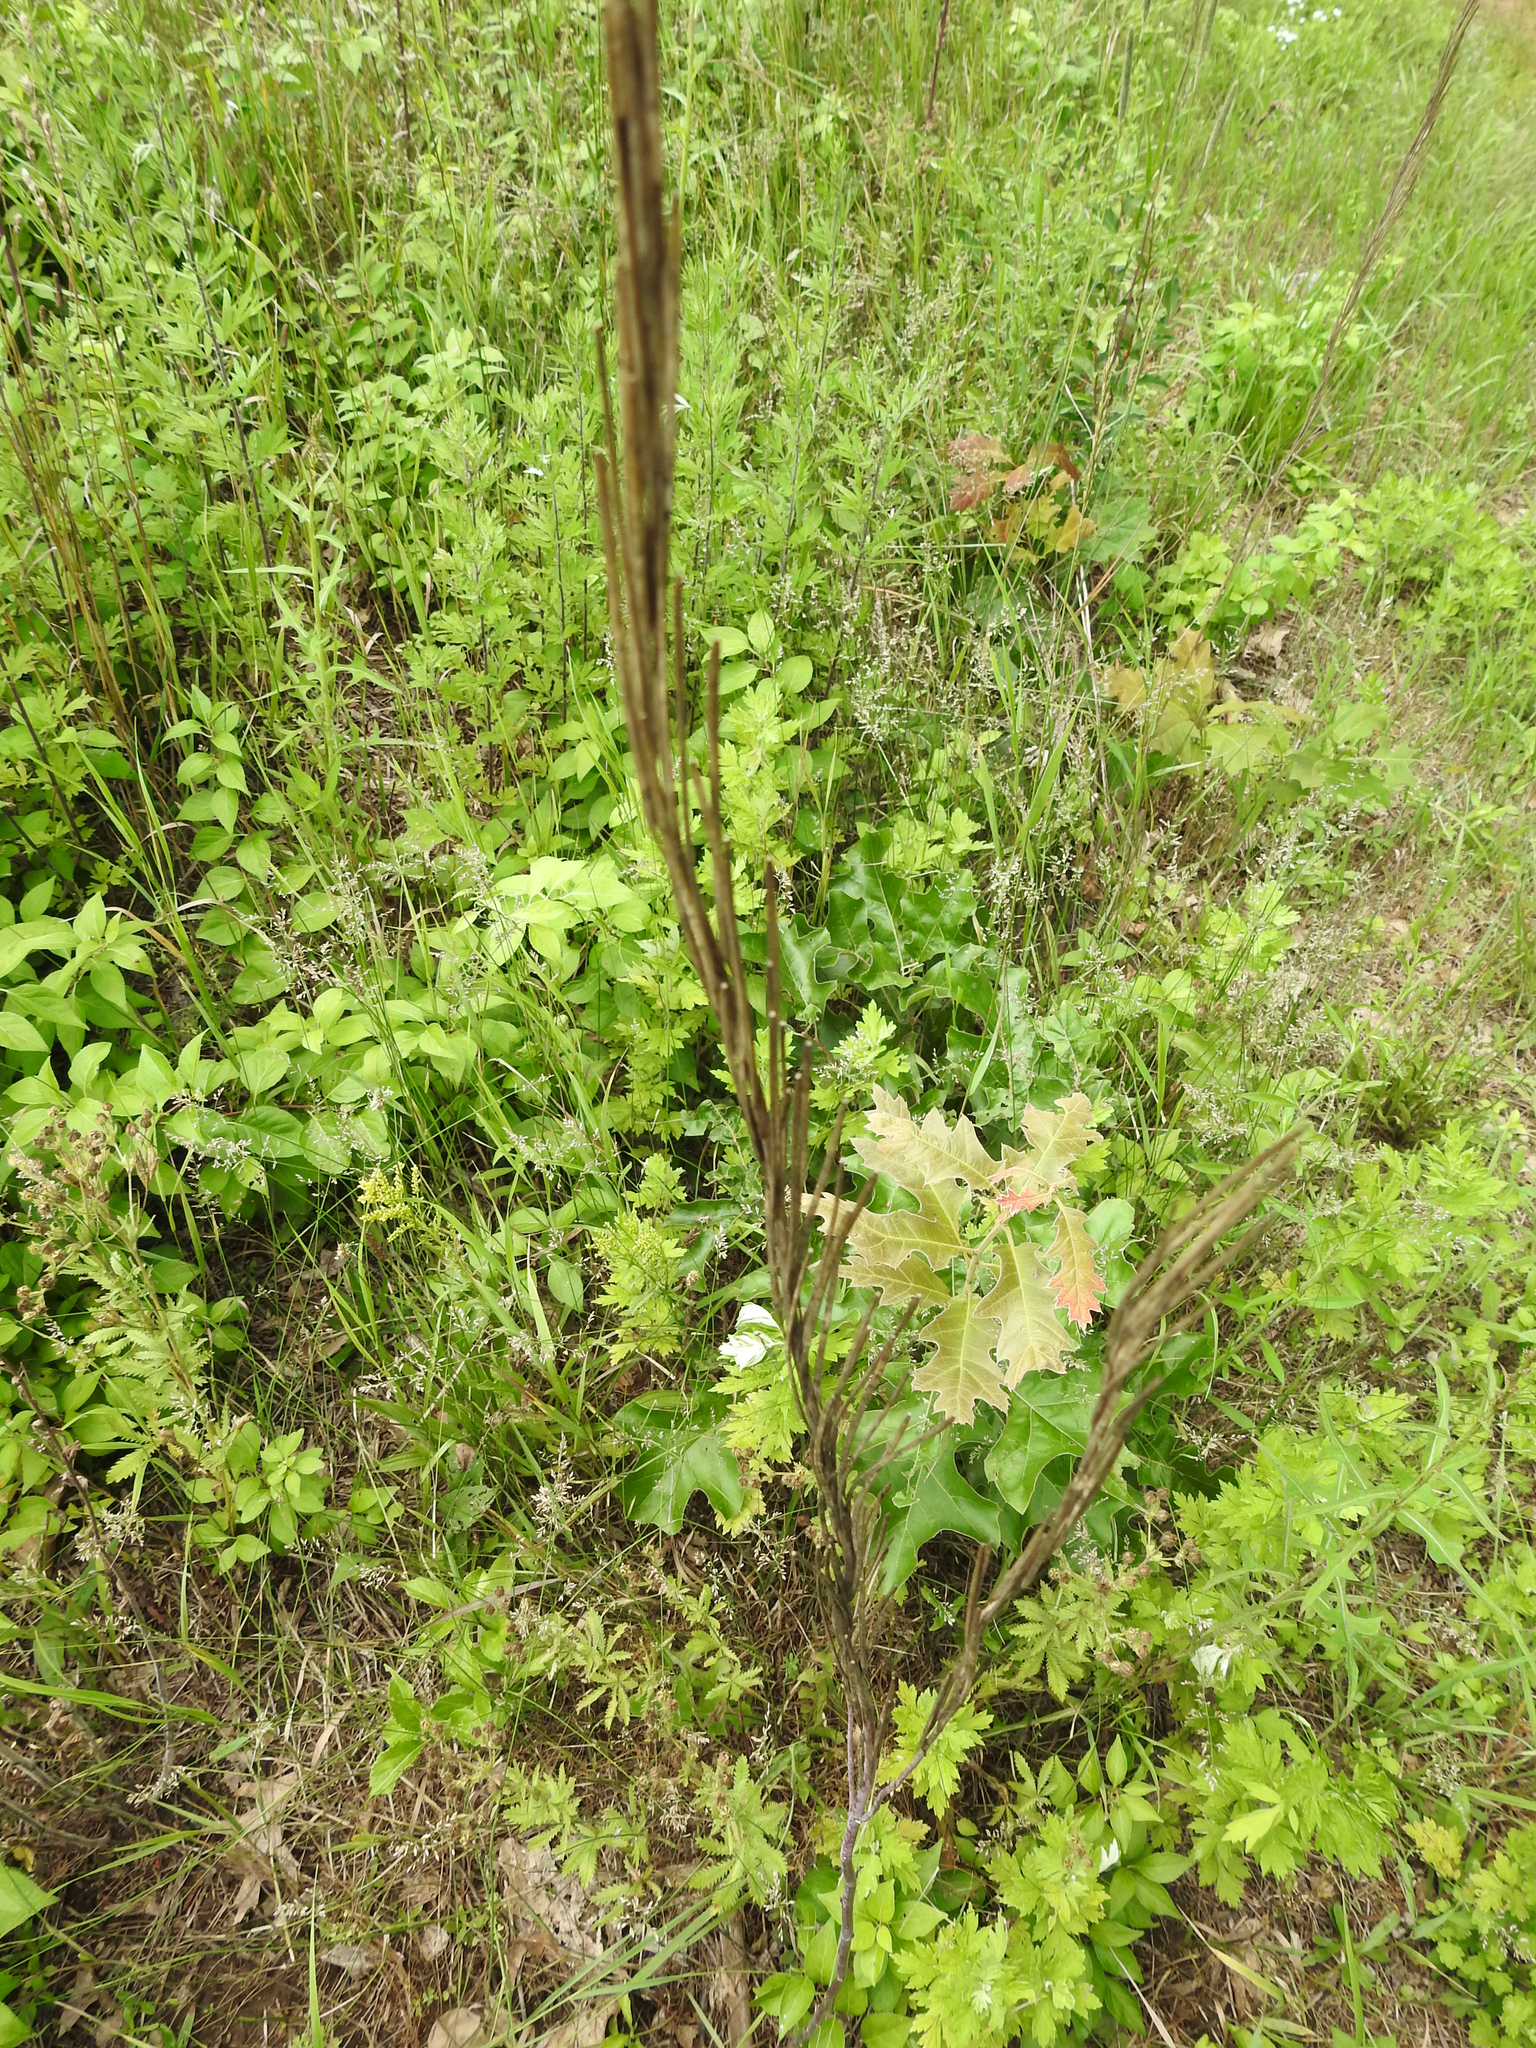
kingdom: Plantae
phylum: Tracheophyta
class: Magnoliopsida
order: Brassicales
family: Brassicaceae
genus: Turritis
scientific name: Turritis glabra
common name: Tower rockcress
